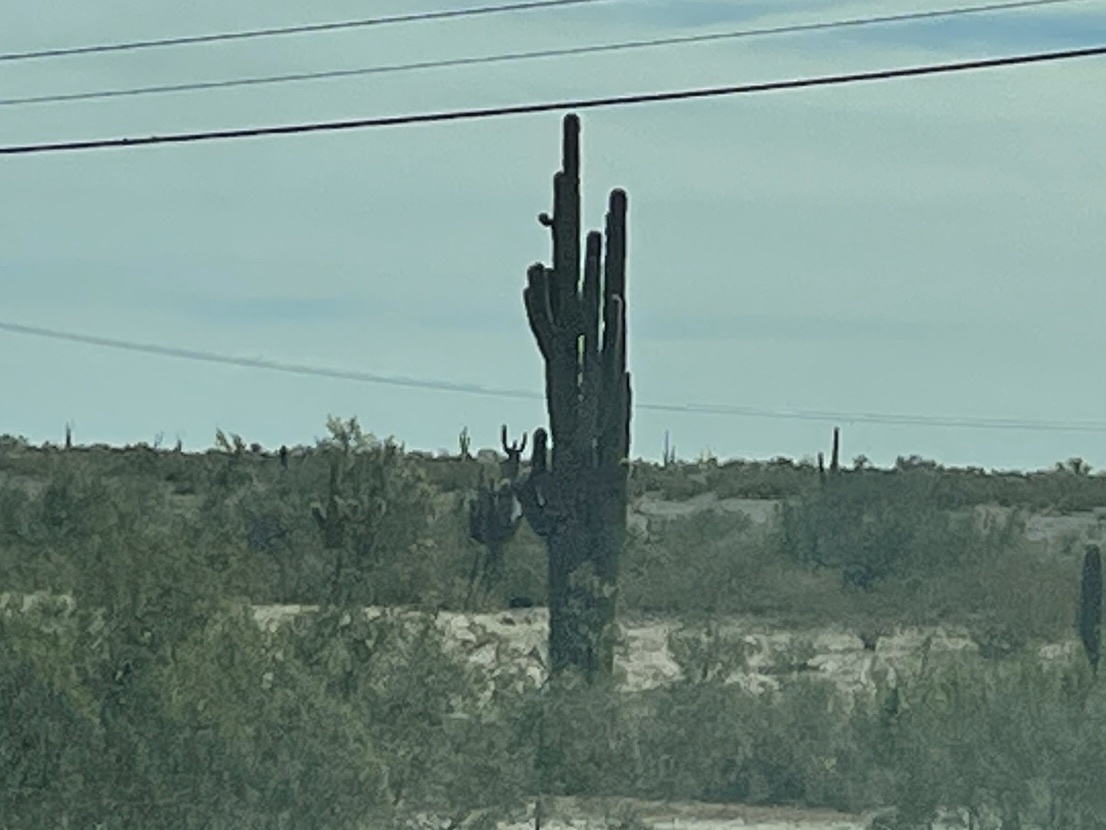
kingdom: Plantae
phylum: Tracheophyta
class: Magnoliopsida
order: Caryophyllales
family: Cactaceae
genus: Carnegiea
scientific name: Carnegiea gigantea
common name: Saguaro
